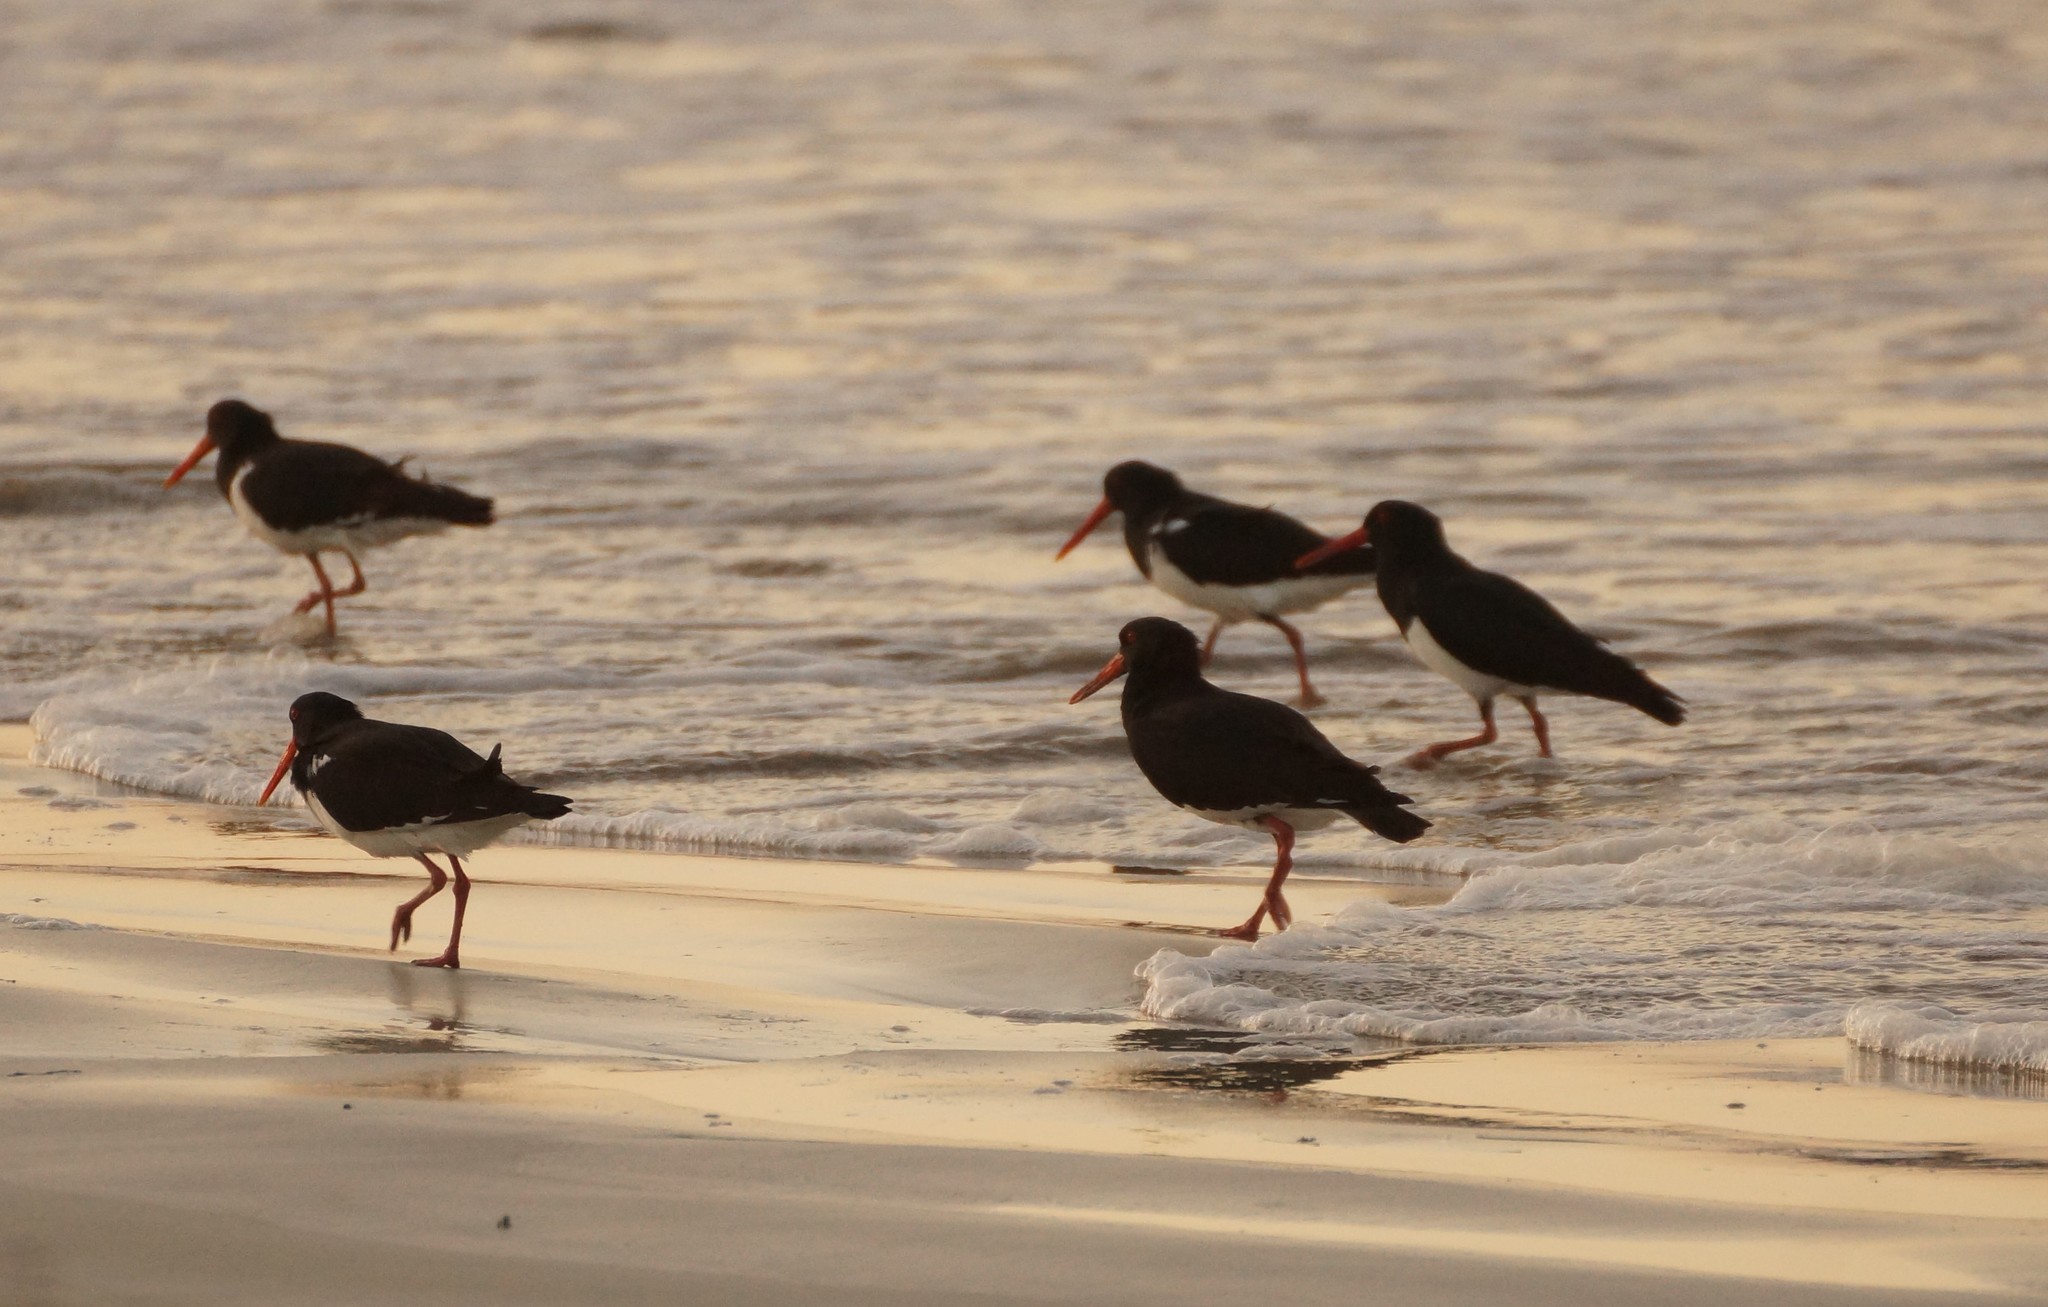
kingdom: Animalia
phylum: Chordata
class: Aves
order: Charadriiformes
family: Haematopodidae
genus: Haematopus
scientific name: Haematopus longirostris
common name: Pied oystercatcher
